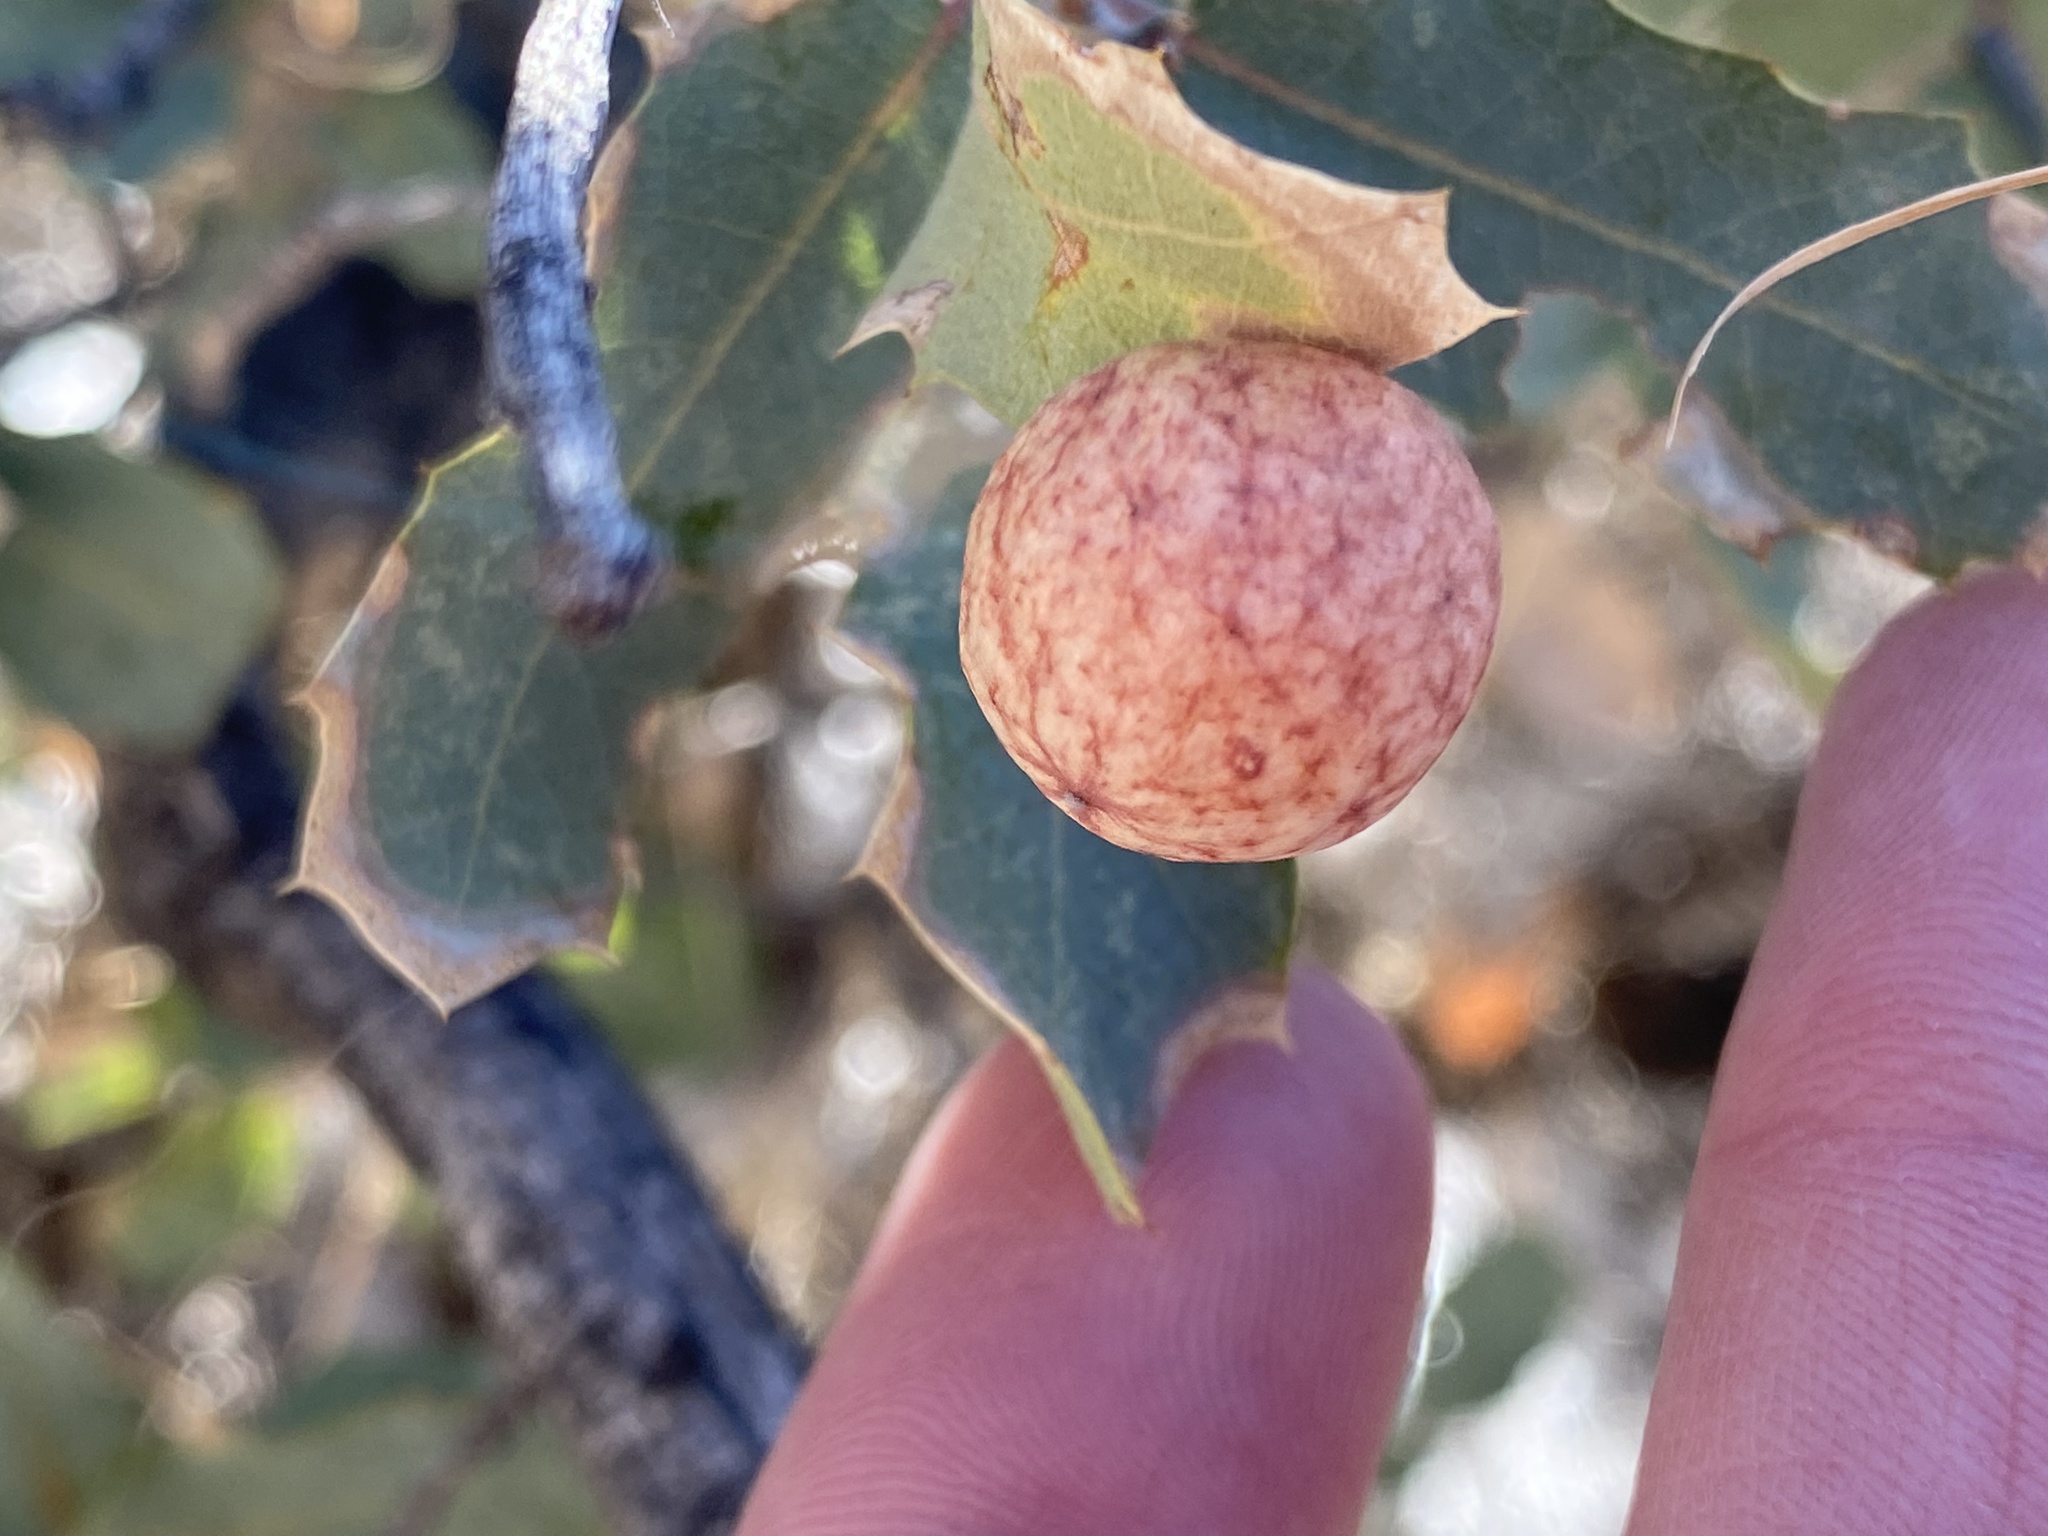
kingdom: Animalia
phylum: Arthropoda
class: Insecta
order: Hymenoptera
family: Cynipidae
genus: Atrusca
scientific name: Atrusca
